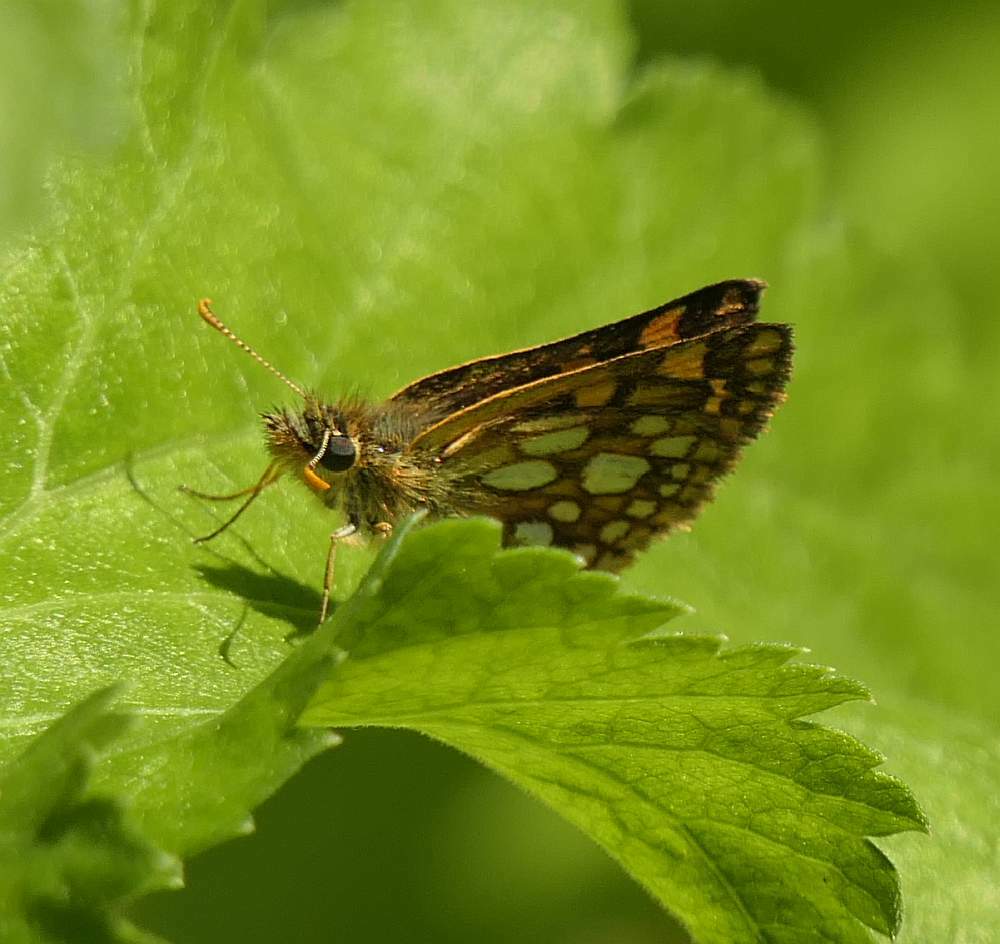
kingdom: Animalia
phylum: Arthropoda
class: Insecta
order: Lepidoptera
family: Hesperiidae
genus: Carterocephalus
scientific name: Carterocephalus mandan
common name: Arctic skipperling
